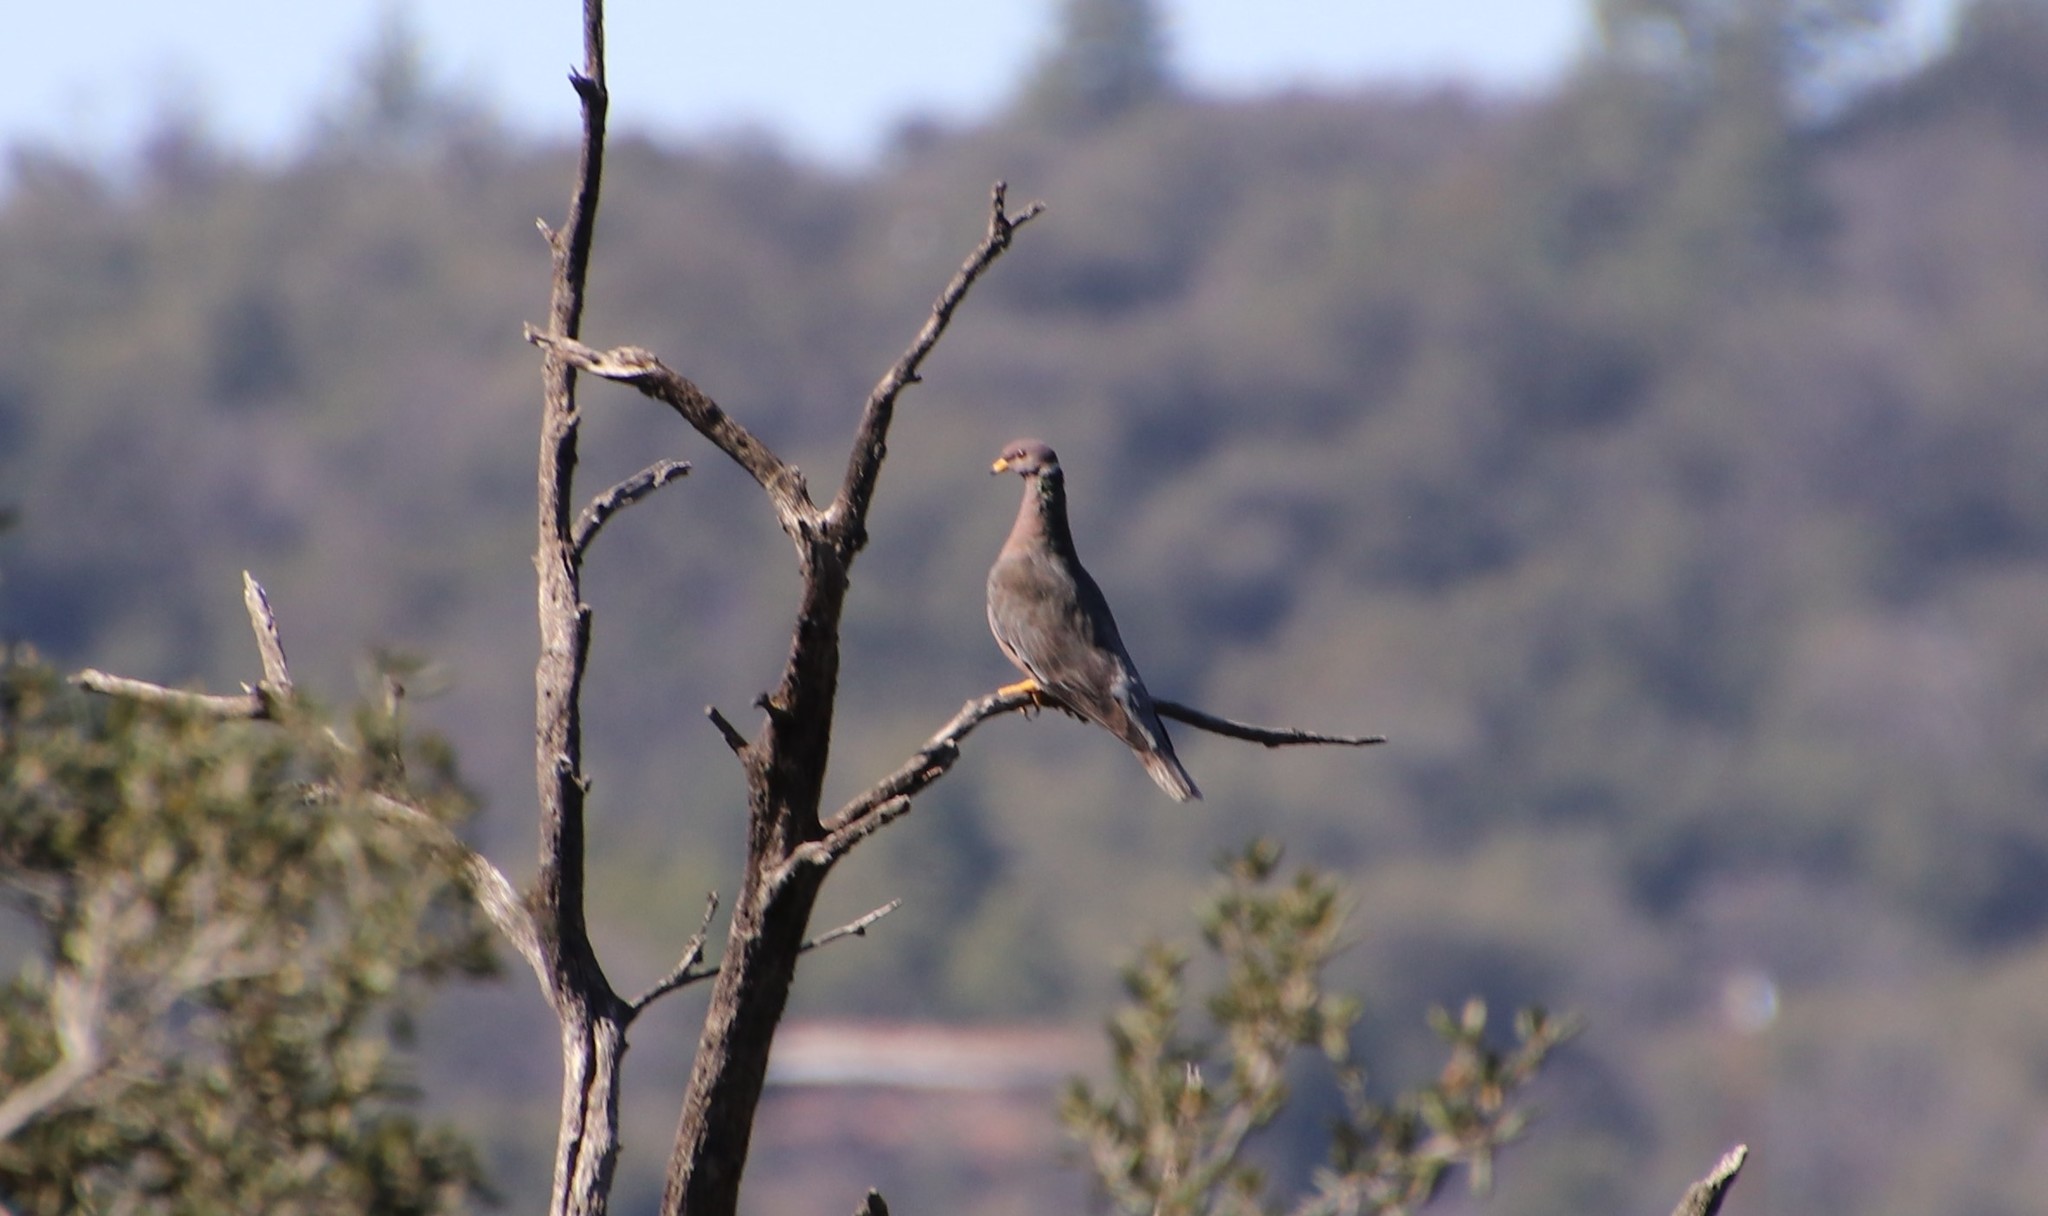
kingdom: Animalia
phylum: Chordata
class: Aves
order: Columbiformes
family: Columbidae
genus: Patagioenas
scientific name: Patagioenas fasciata
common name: Band-tailed pigeon
